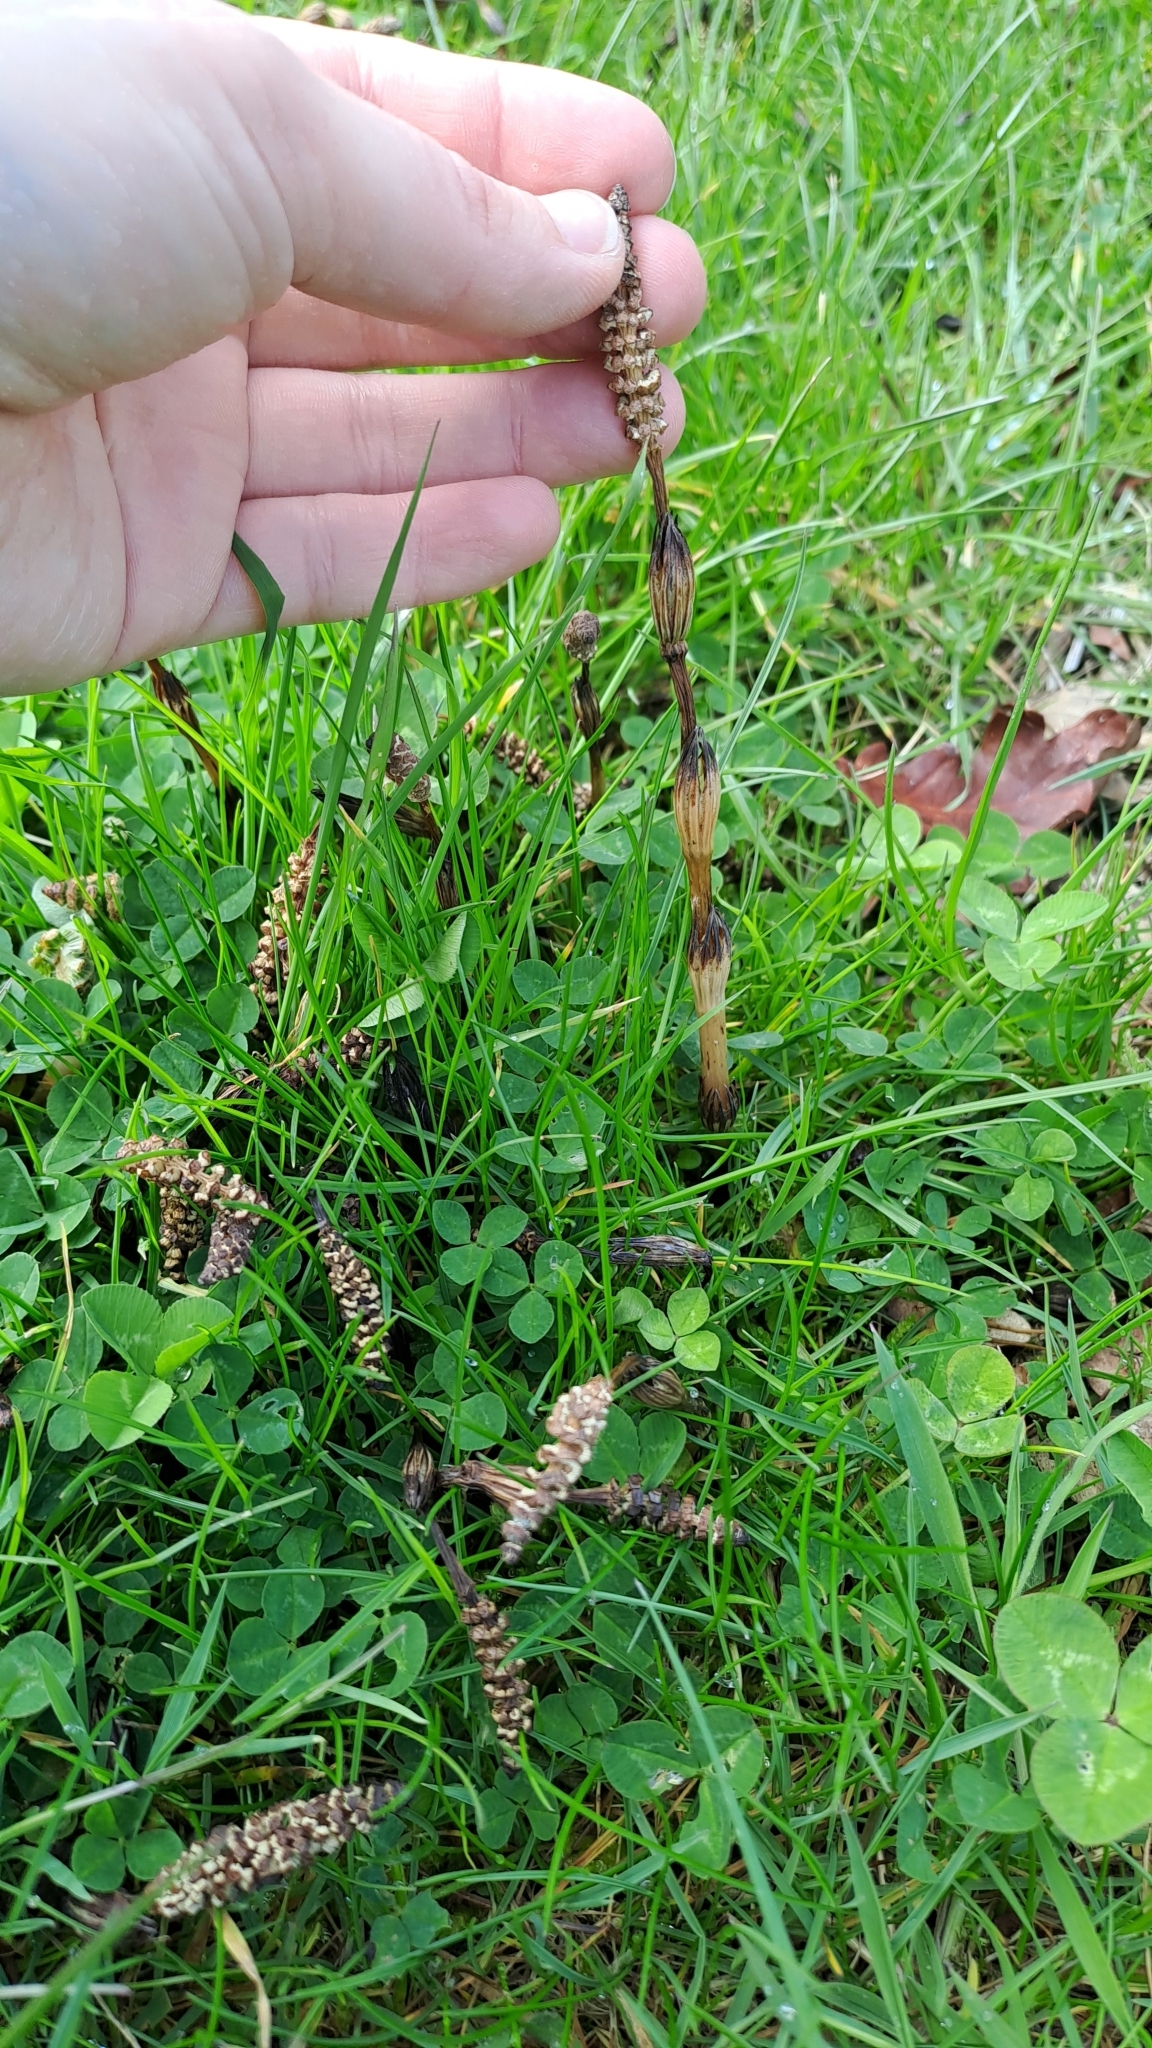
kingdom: Plantae
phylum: Tracheophyta
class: Polypodiopsida
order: Equisetales
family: Equisetaceae
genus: Equisetum
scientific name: Equisetum arvense
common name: Field horsetail
